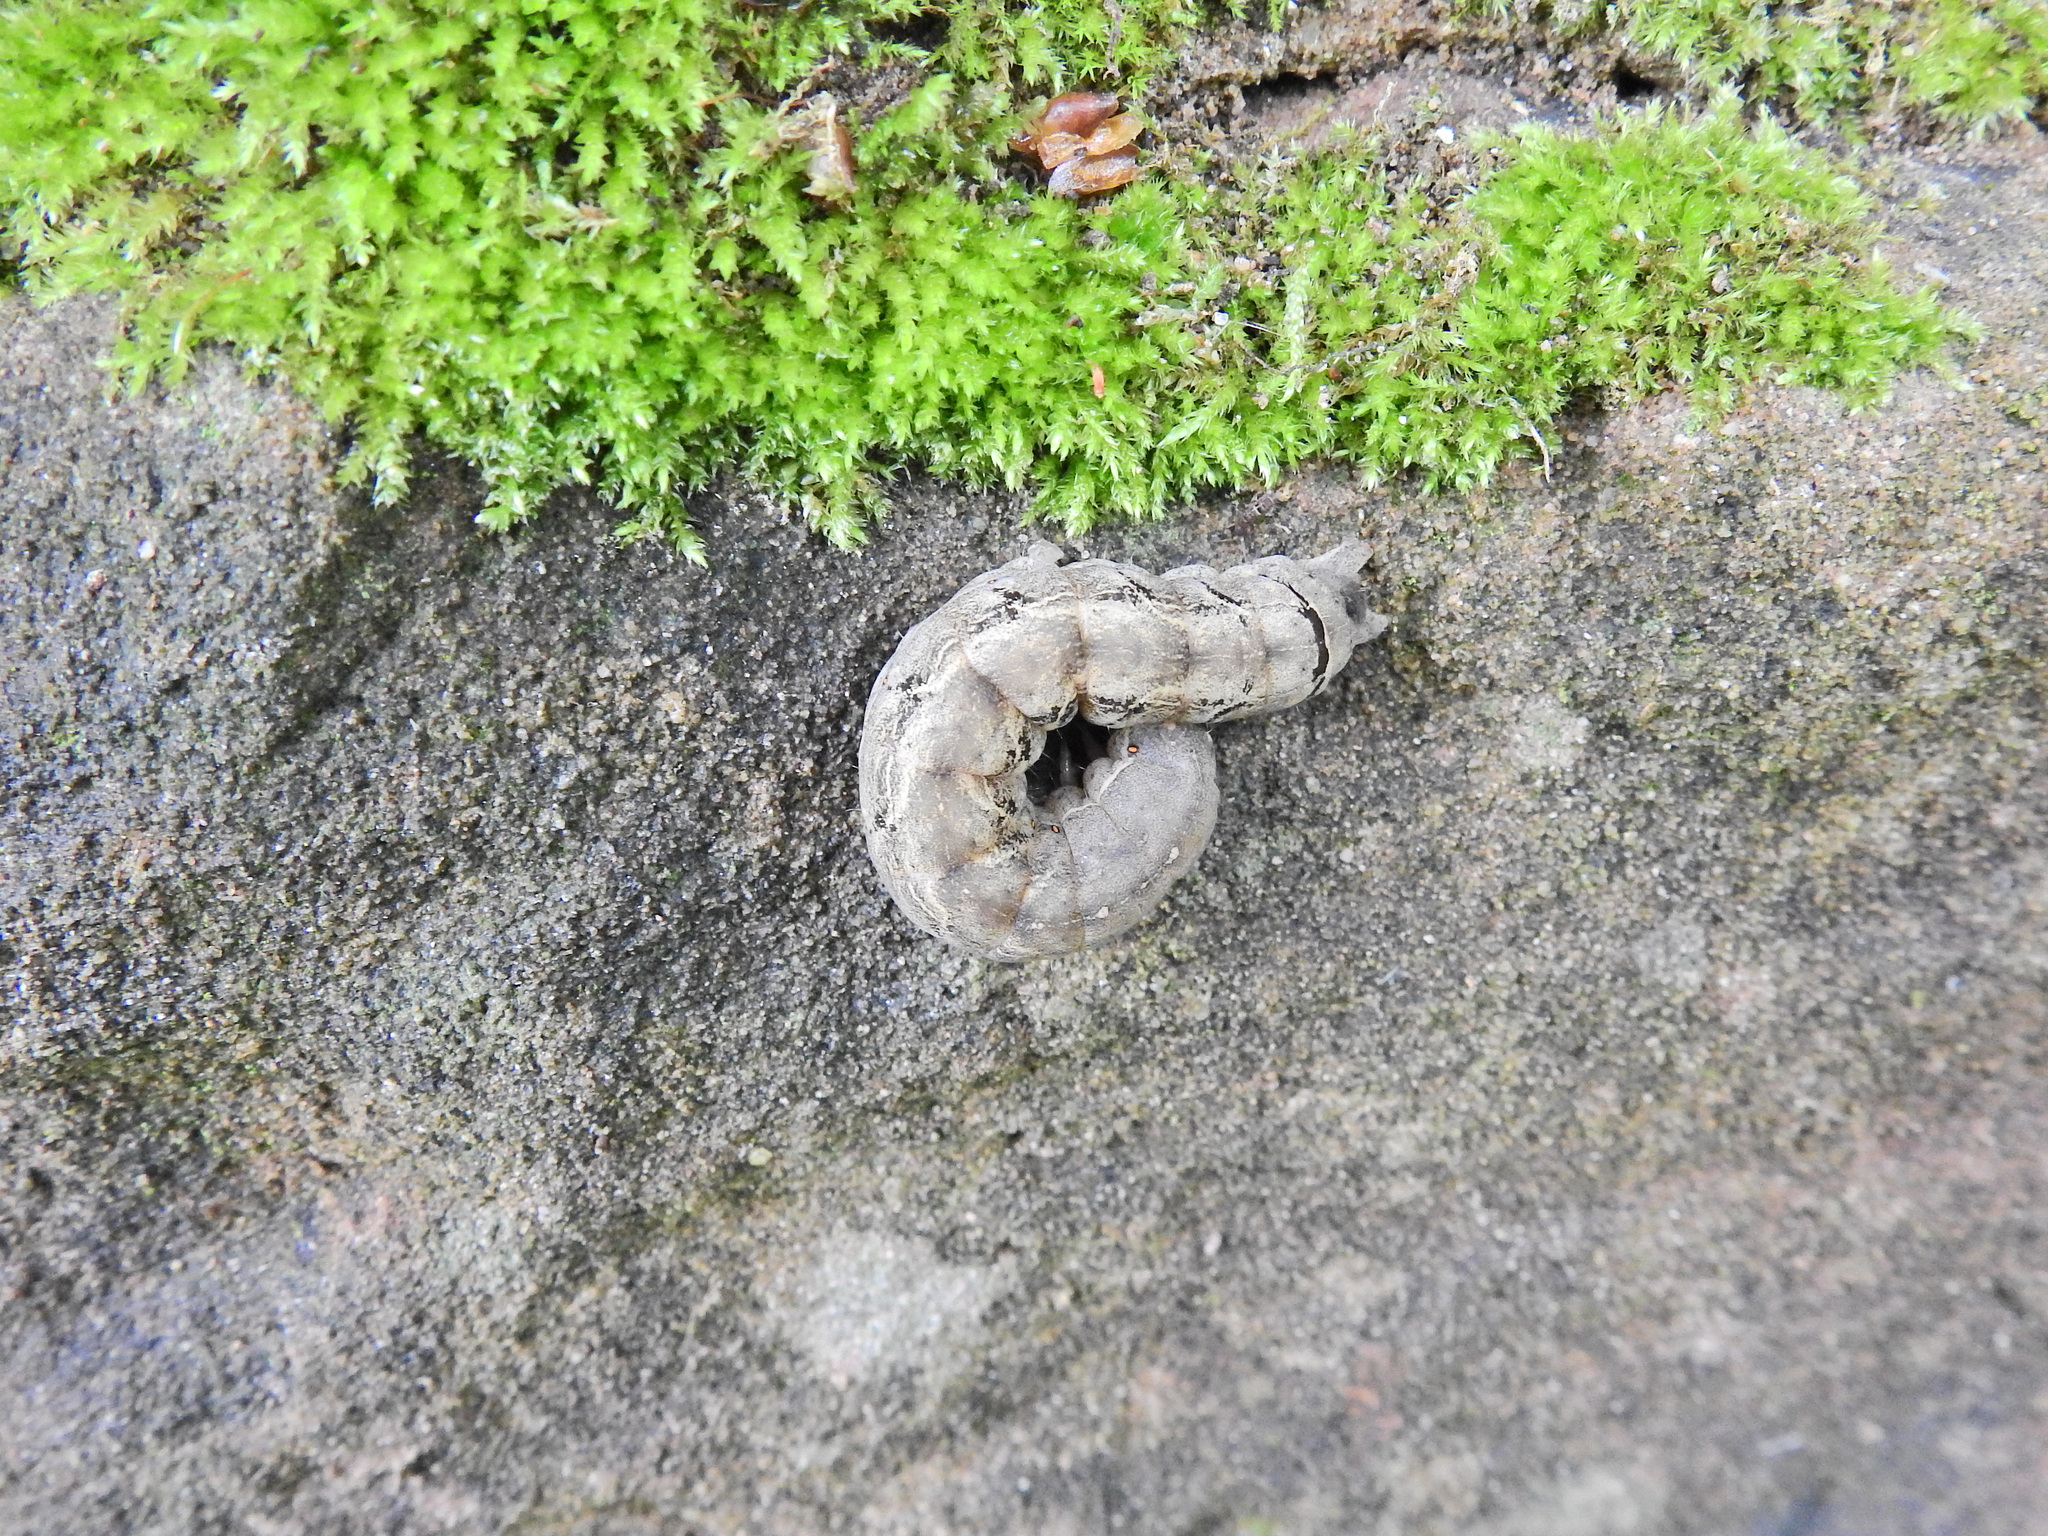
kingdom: Animalia
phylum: Arthropoda
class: Insecta
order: Lepidoptera
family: Noctuidae
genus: Mormo
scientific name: Mormo maura
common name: Old lady
